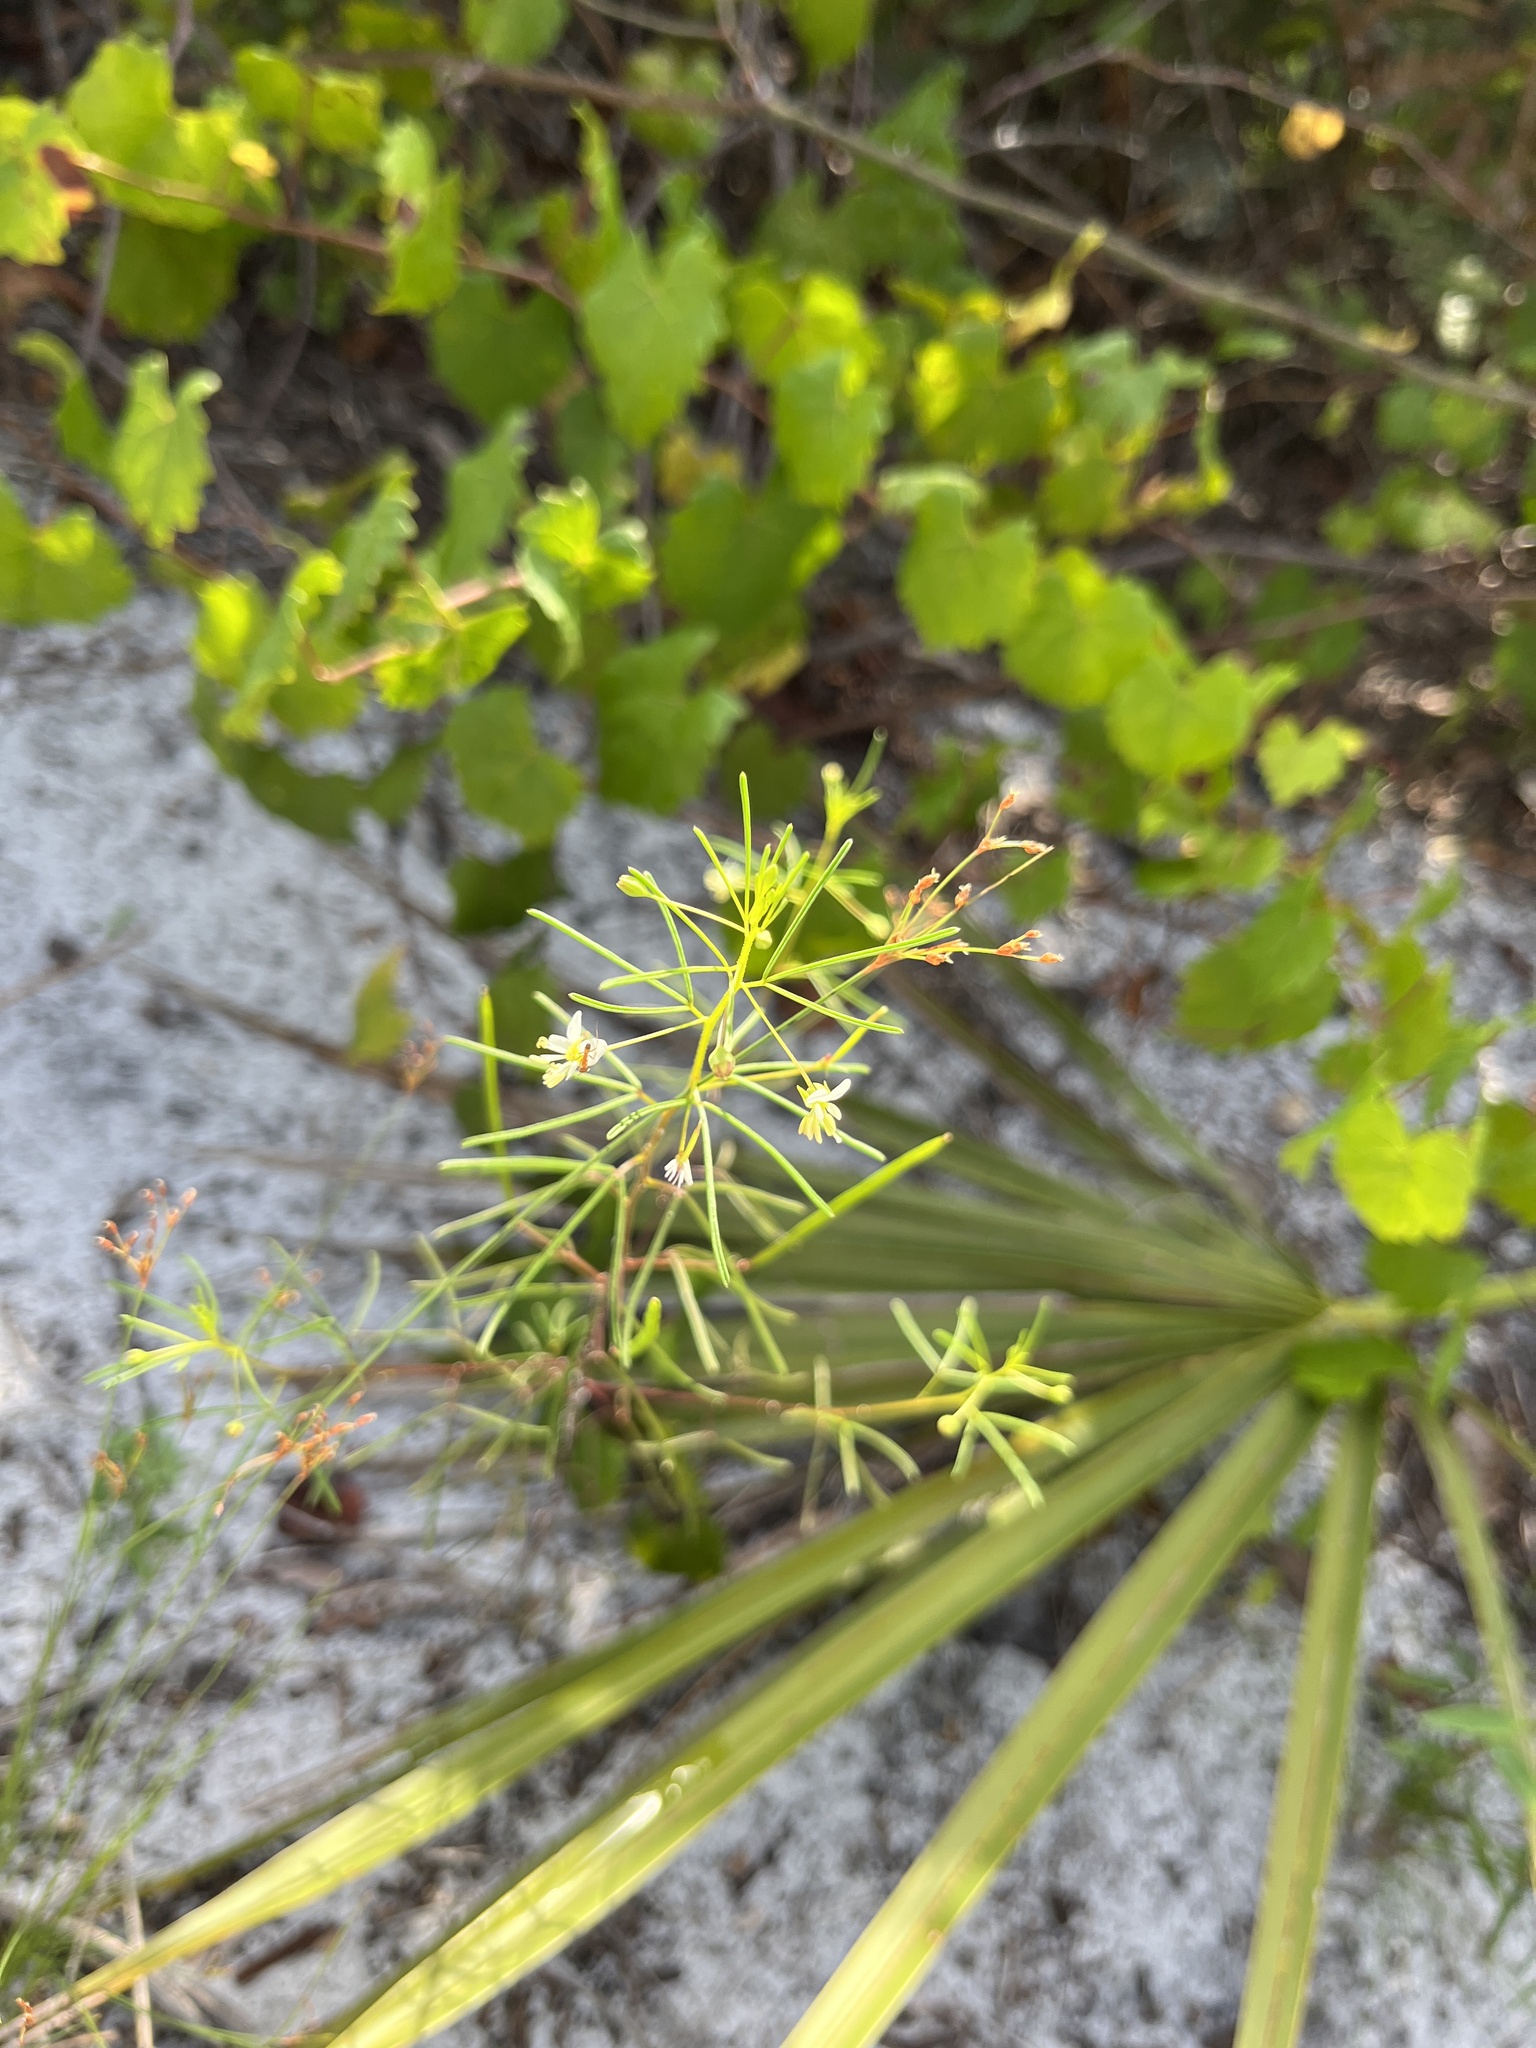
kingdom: Plantae
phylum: Tracheophyta
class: Magnoliopsida
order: Brassicales
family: Cleomaceae
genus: Polanisia
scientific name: Polanisia tenuifolia
